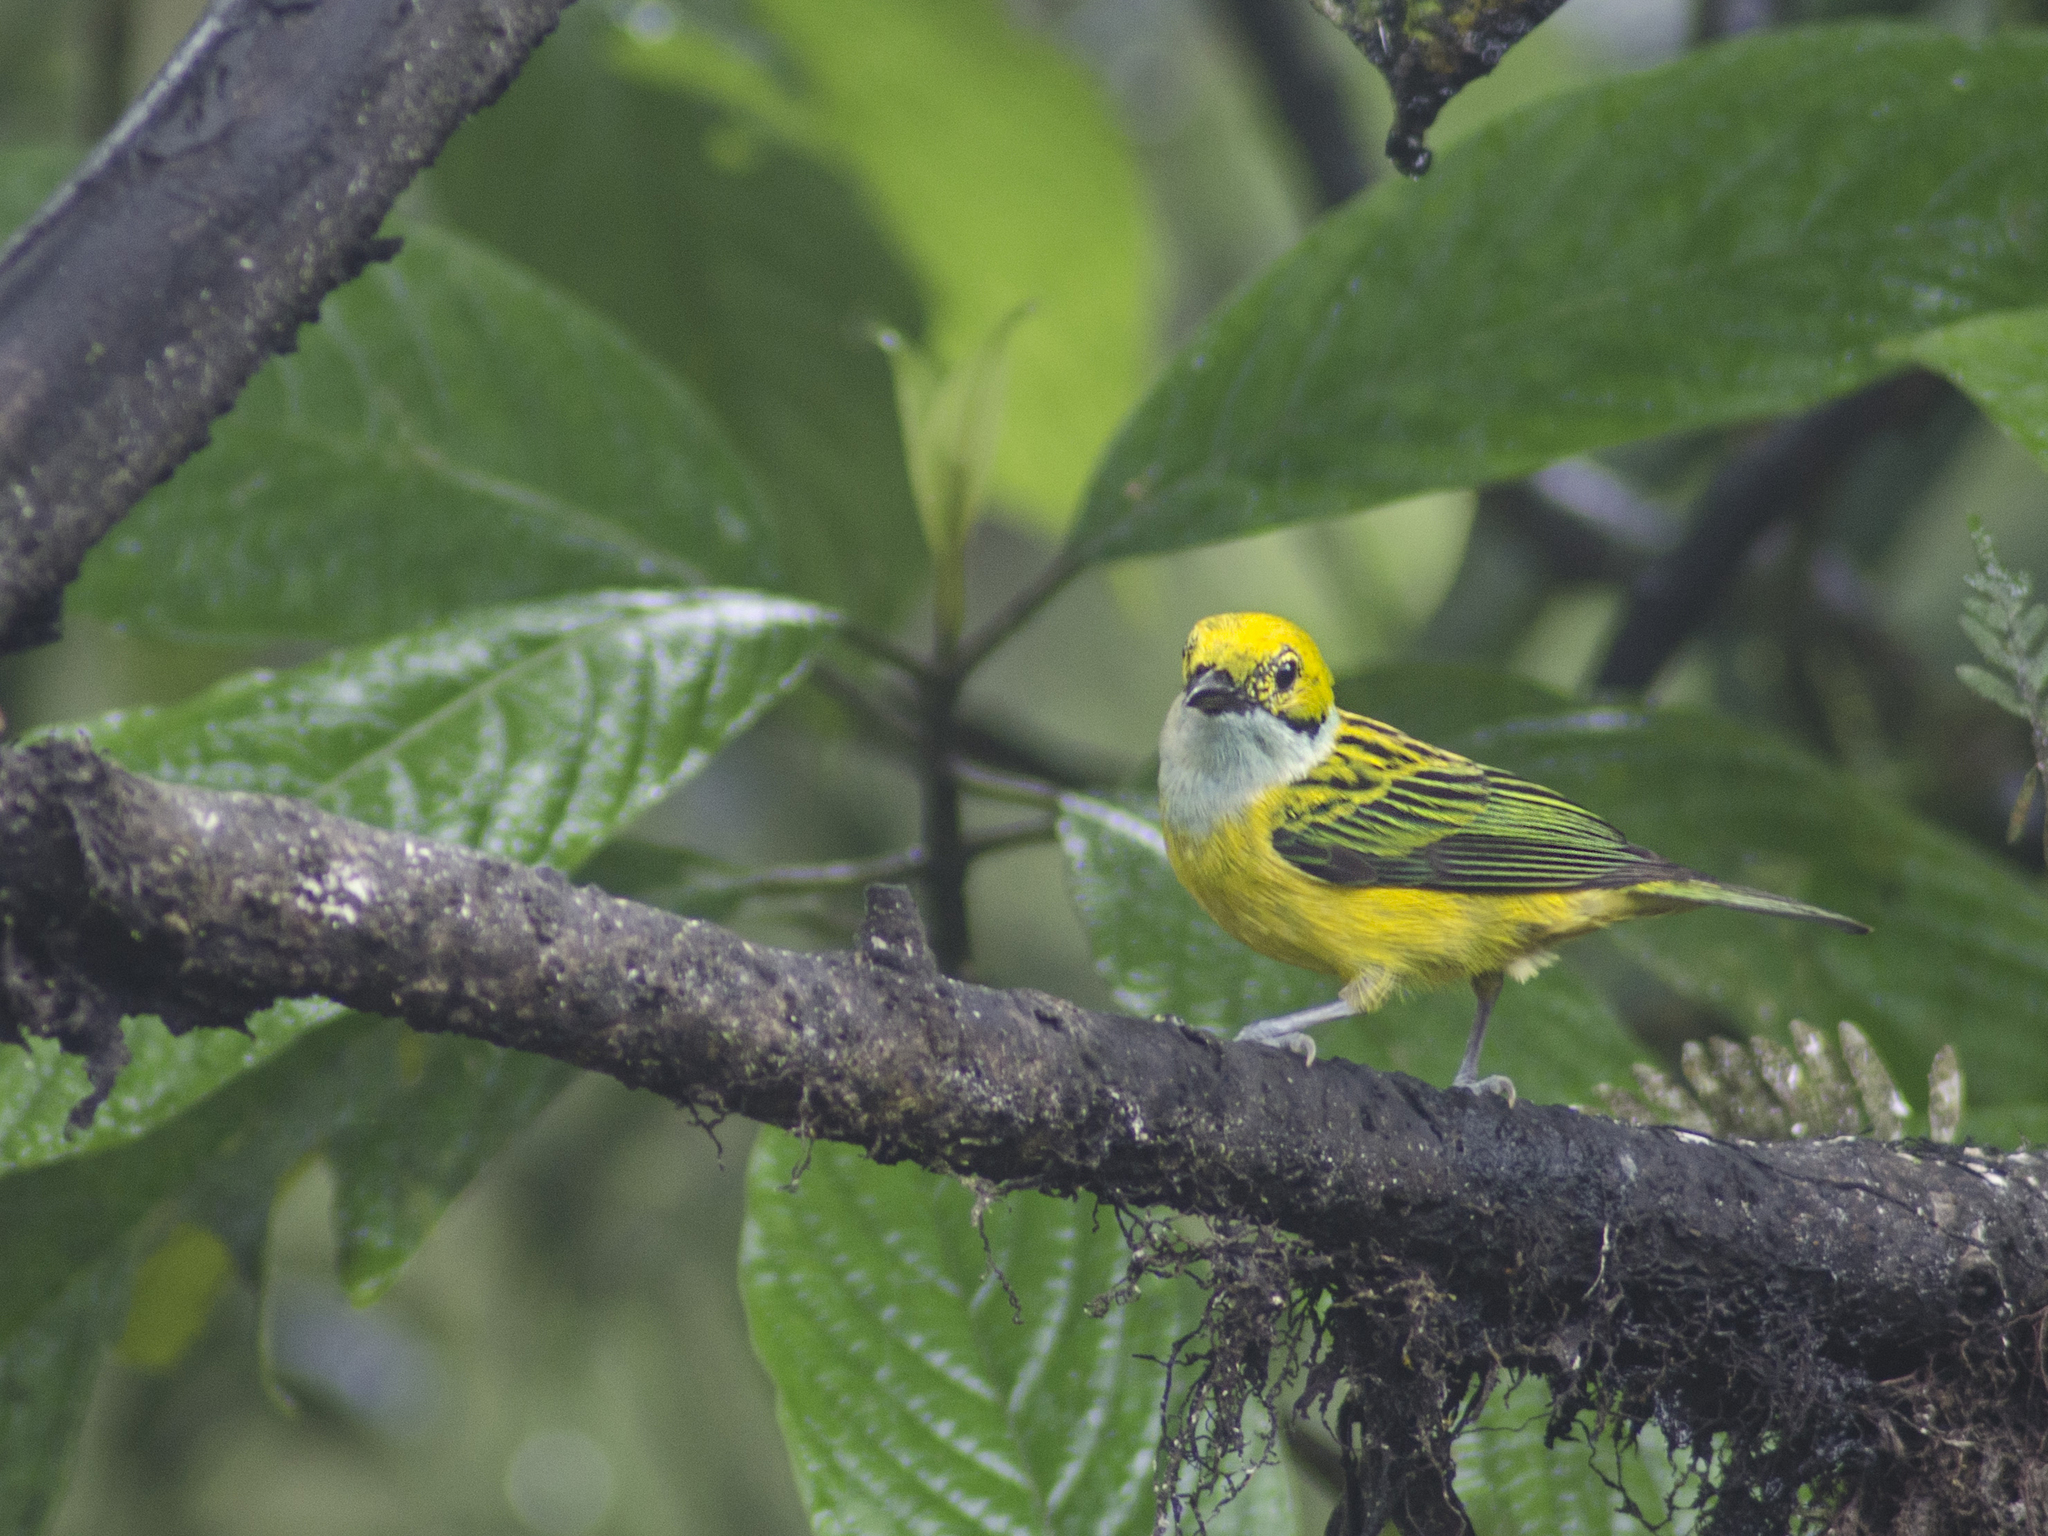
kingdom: Animalia
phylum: Chordata
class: Aves
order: Passeriformes
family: Thraupidae
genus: Tangara
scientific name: Tangara icterocephala
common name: Silver-throated tanager
